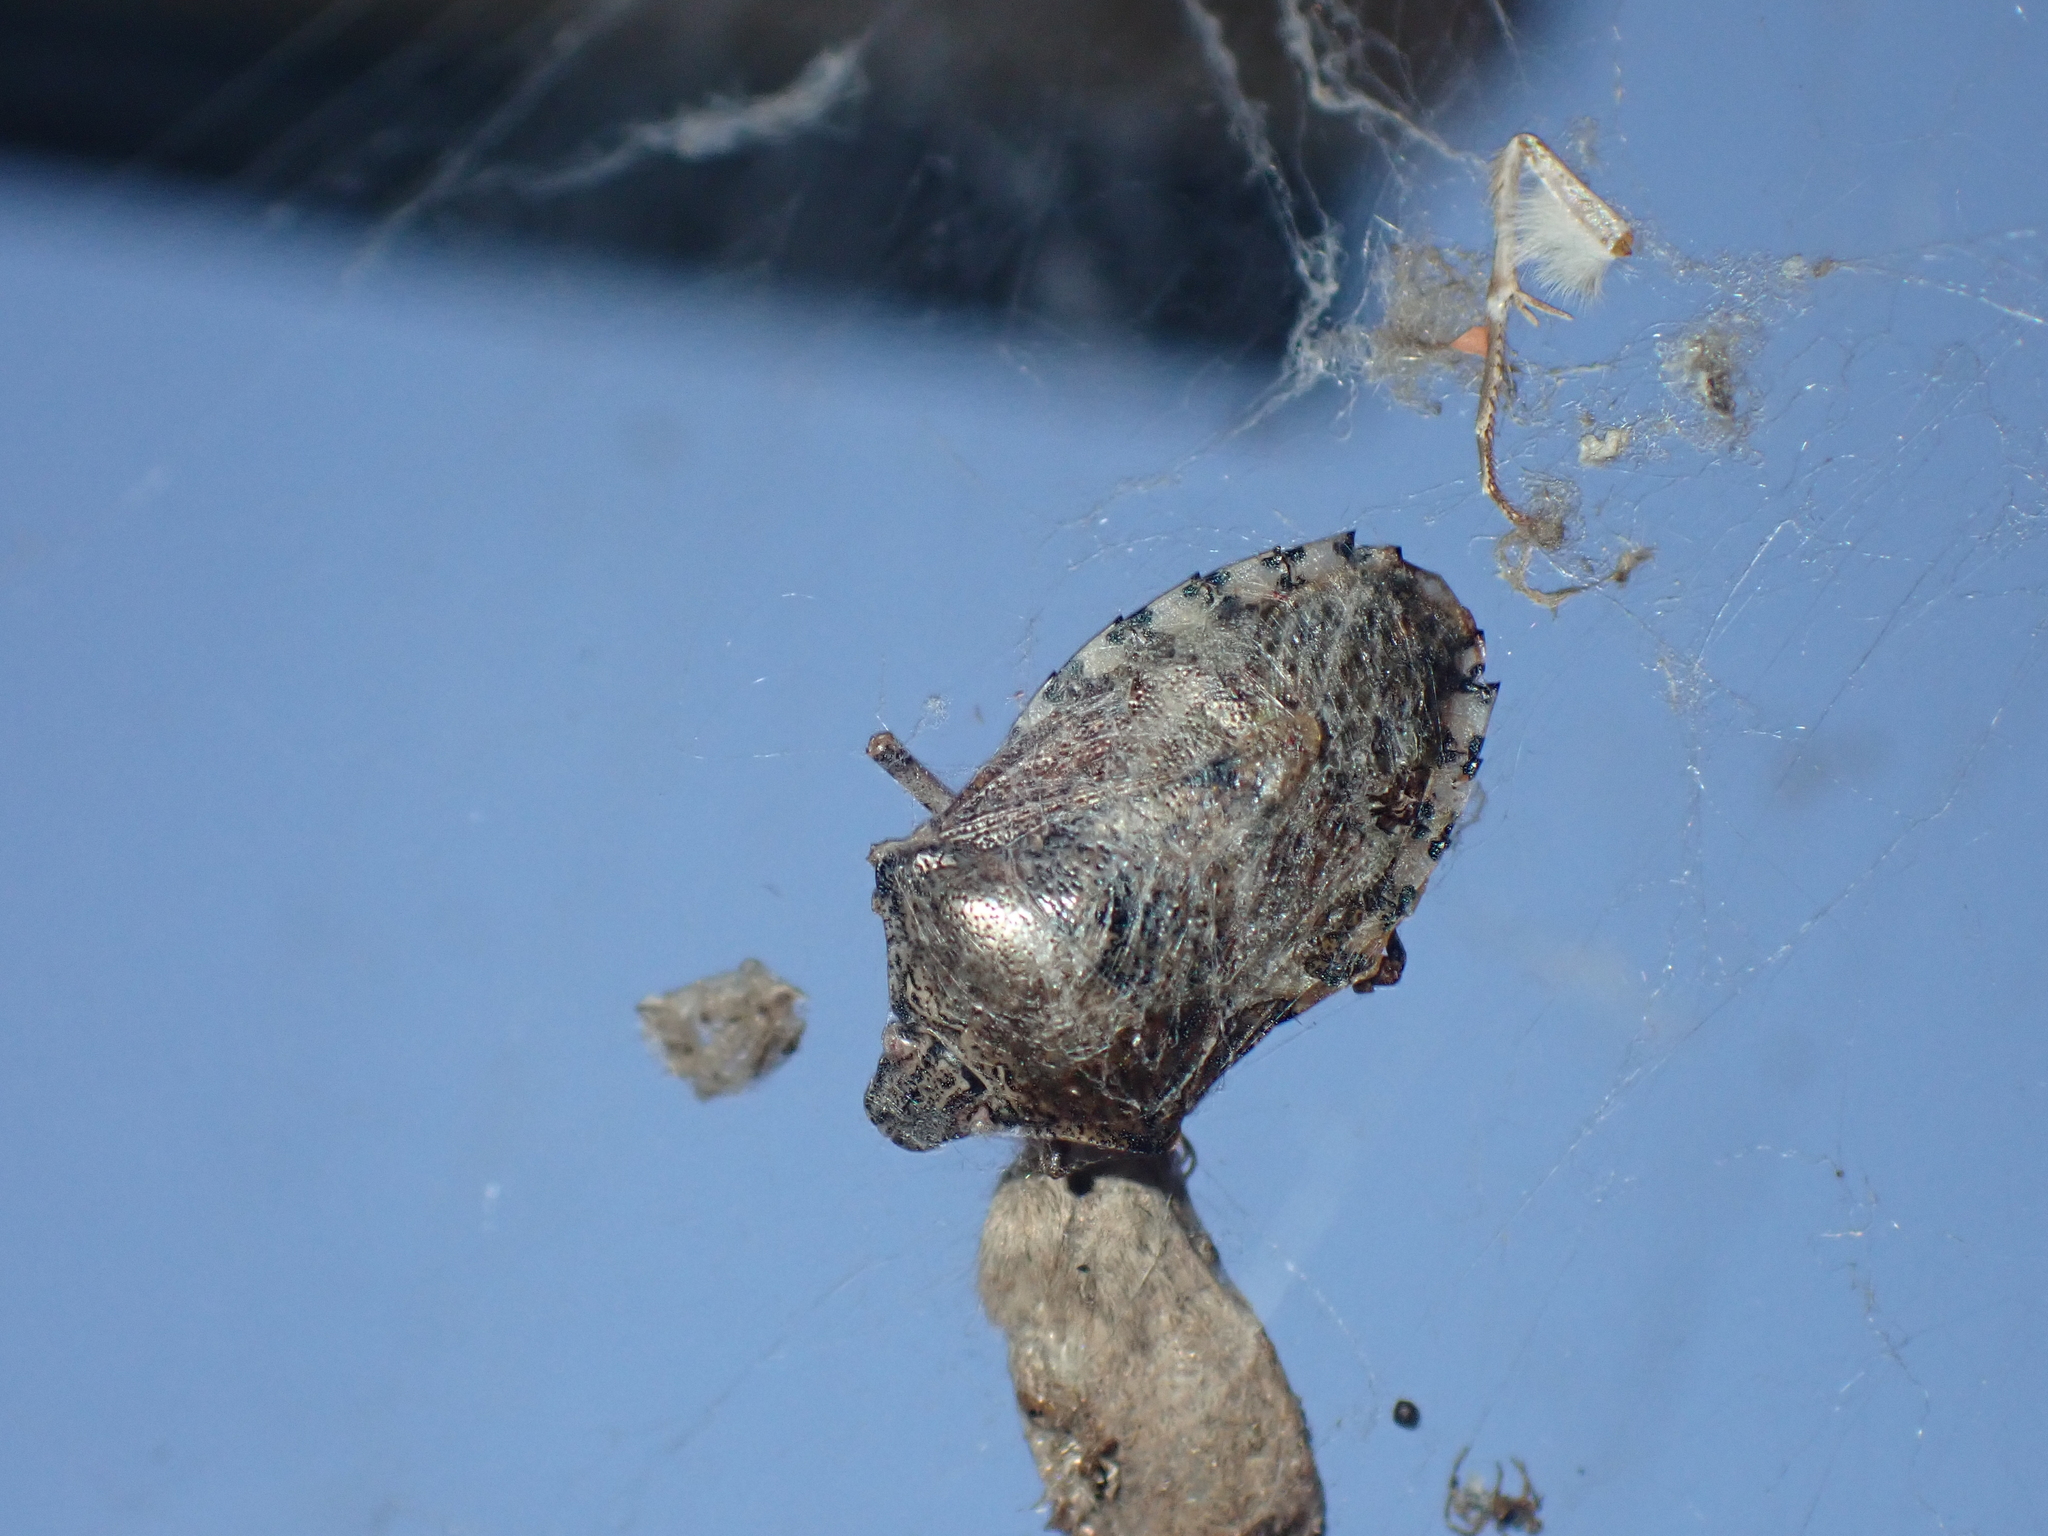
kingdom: Animalia
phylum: Arthropoda
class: Insecta
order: Hemiptera
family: Pentatomidae
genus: Rhaphigaster
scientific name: Rhaphigaster nebulosa
